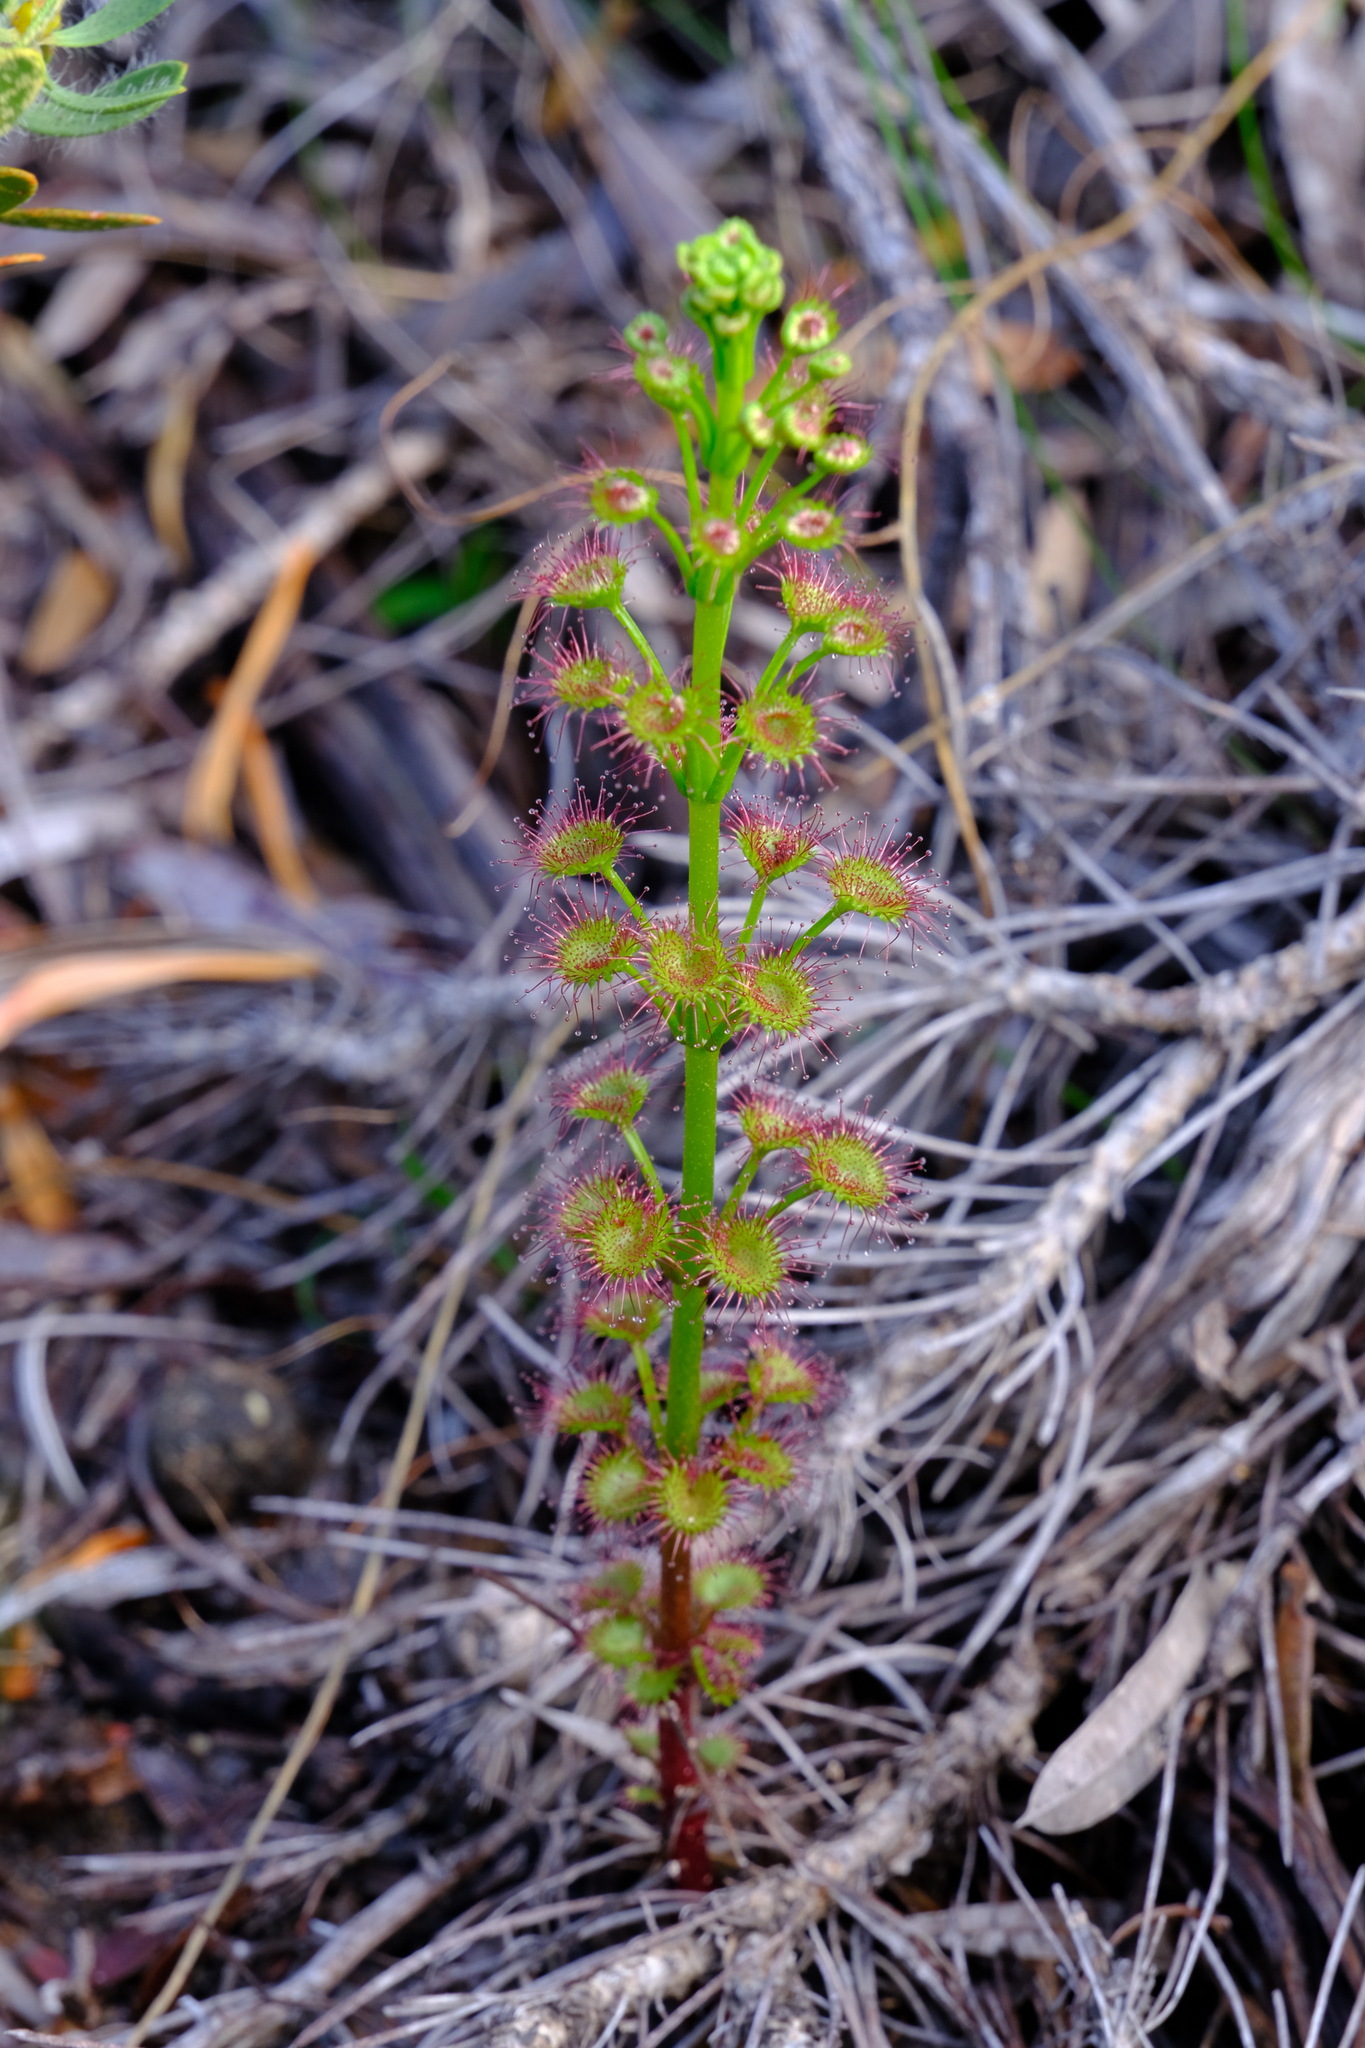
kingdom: Plantae
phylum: Tracheophyta
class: Magnoliopsida
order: Caryophyllales
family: Droseraceae
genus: Drosera
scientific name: Drosera stolonifera
